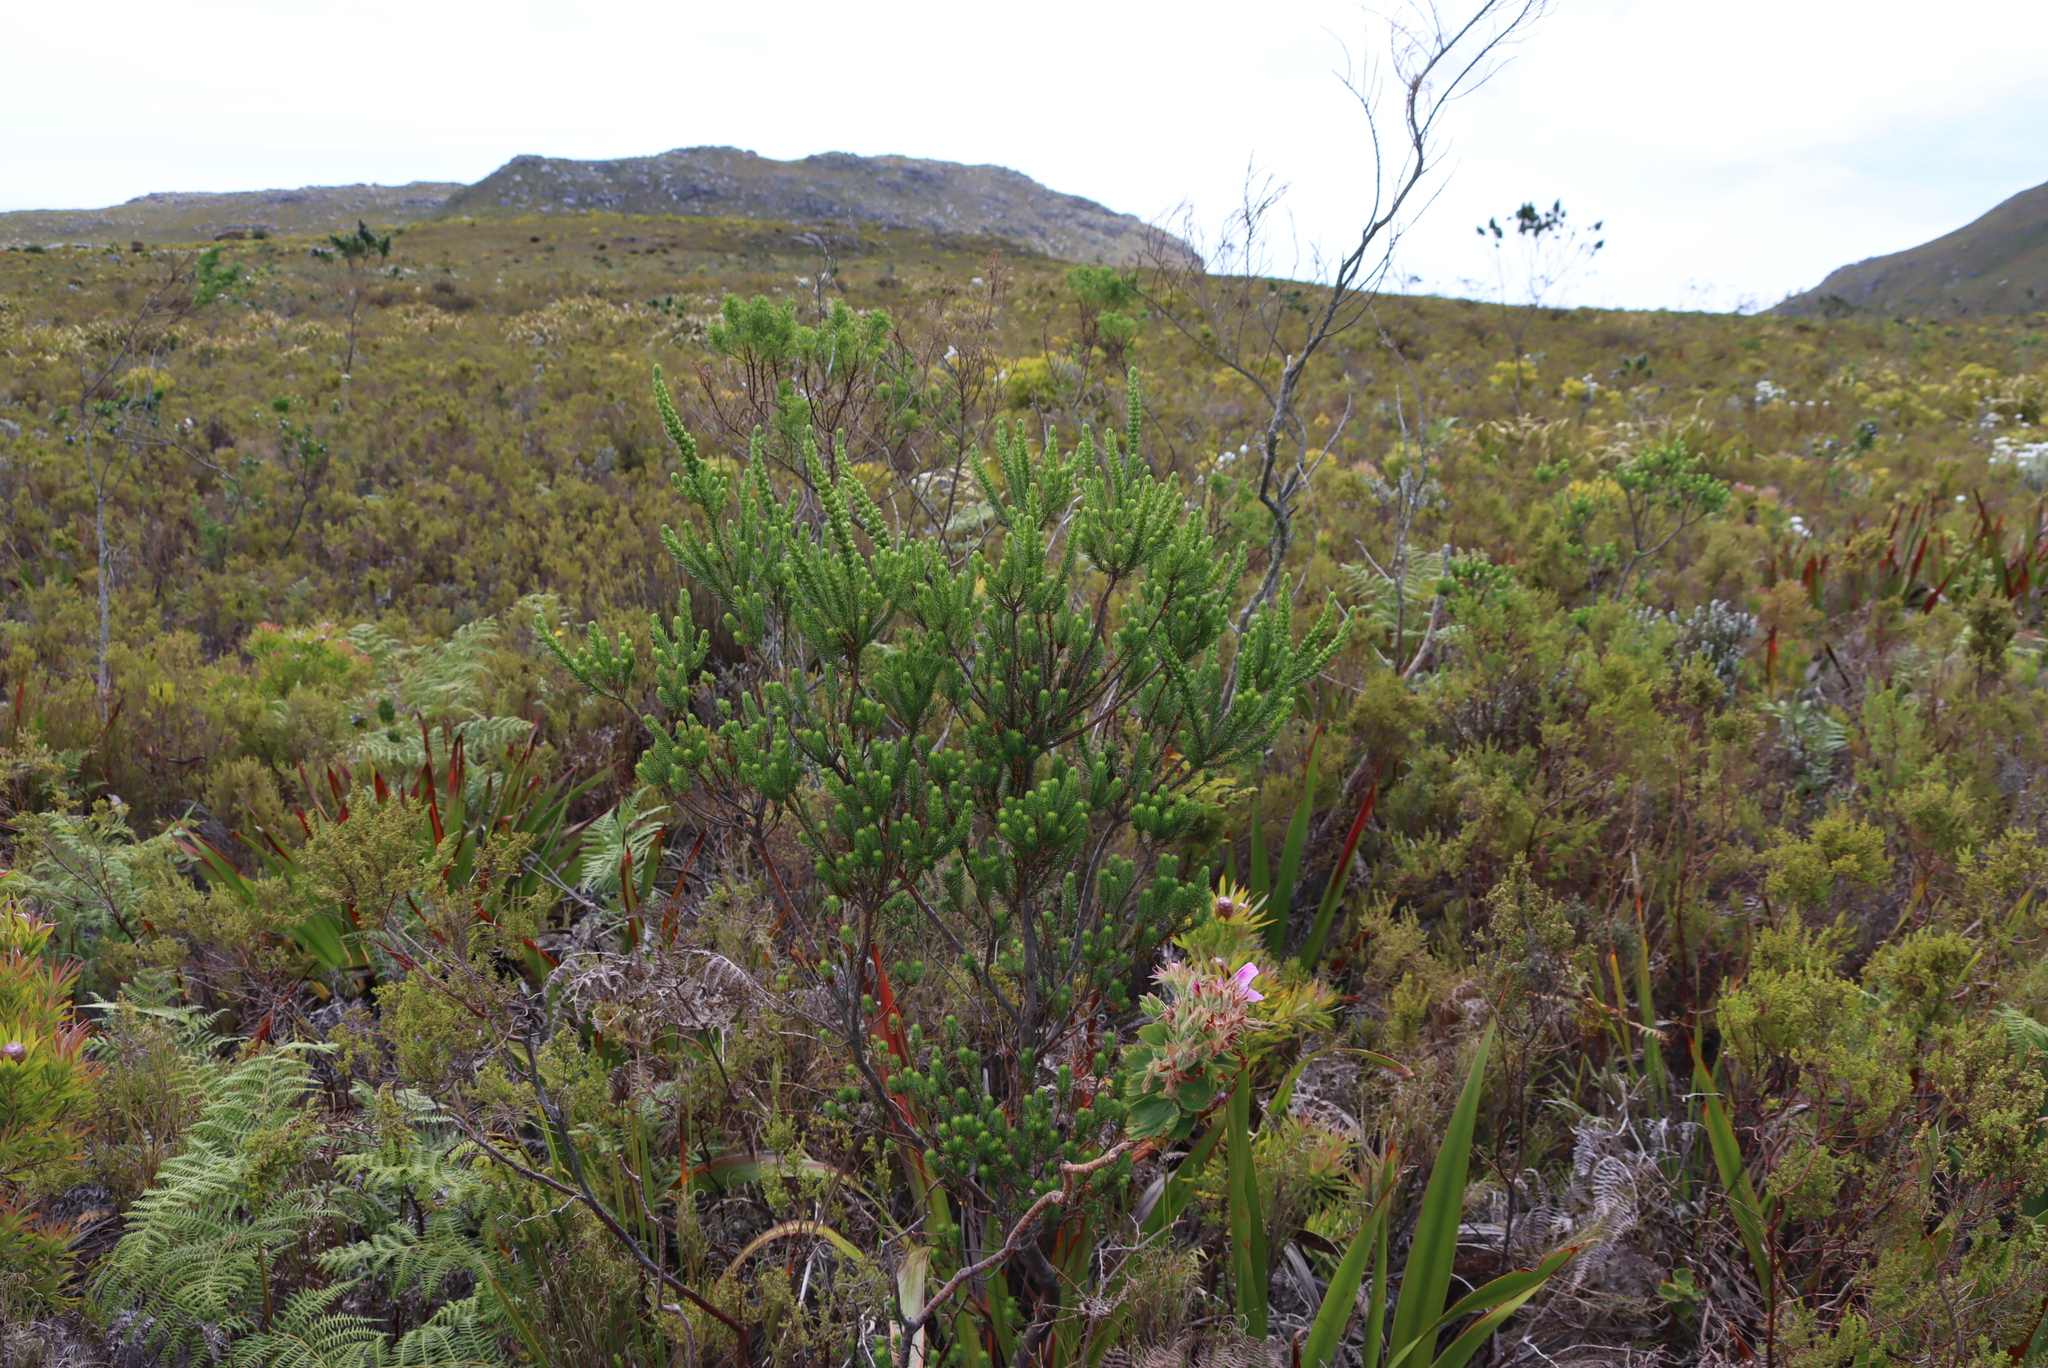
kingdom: Plantae
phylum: Tracheophyta
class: Magnoliopsida
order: Ericales
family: Ericaceae
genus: Erica
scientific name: Erica mammosa
